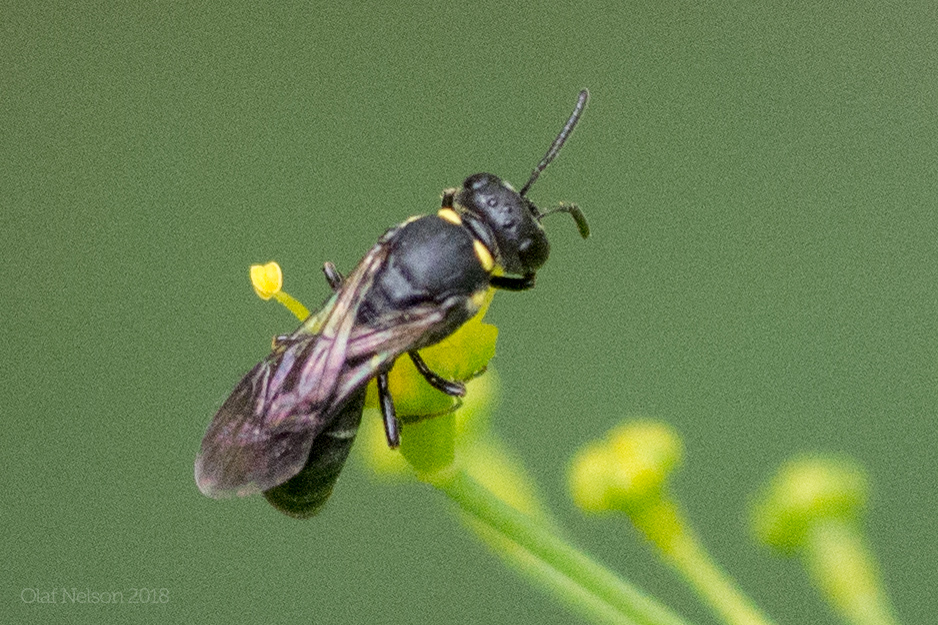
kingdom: Animalia
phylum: Arthropoda
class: Insecta
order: Hymenoptera
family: Colletidae
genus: Hylaeus
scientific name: Hylaeus modestus
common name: Yellow-faced bee
